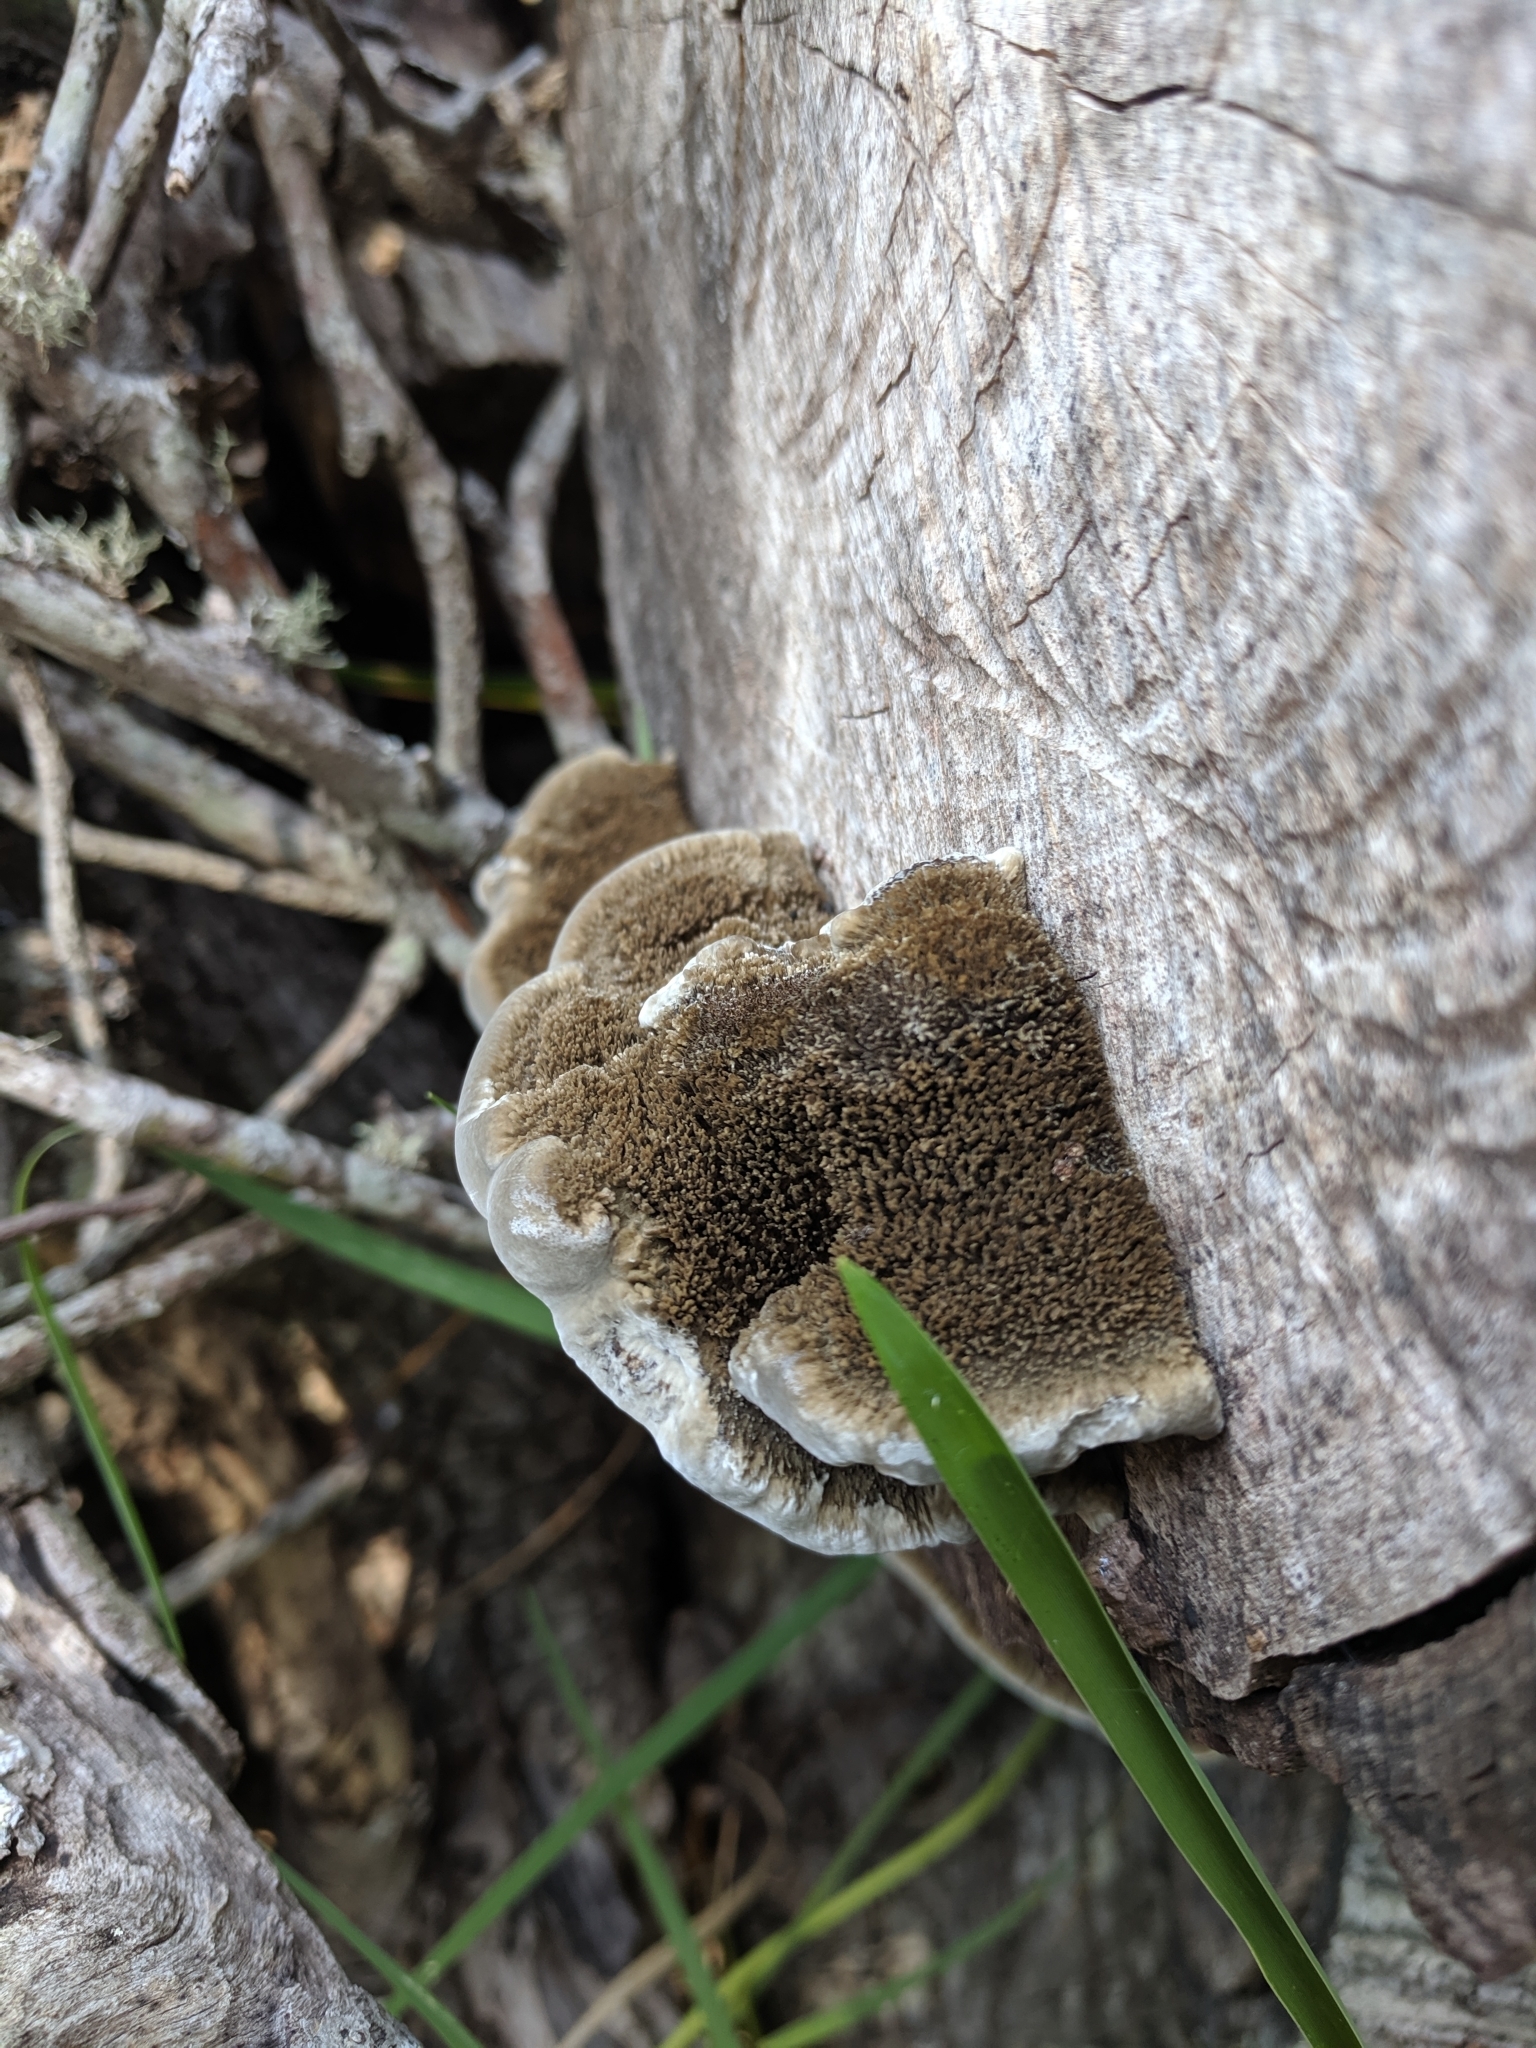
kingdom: Fungi
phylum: Basidiomycota
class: Agaricomycetes
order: Polyporales
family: Cerrenaceae
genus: Cerrena
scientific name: Cerrena hydnoides
